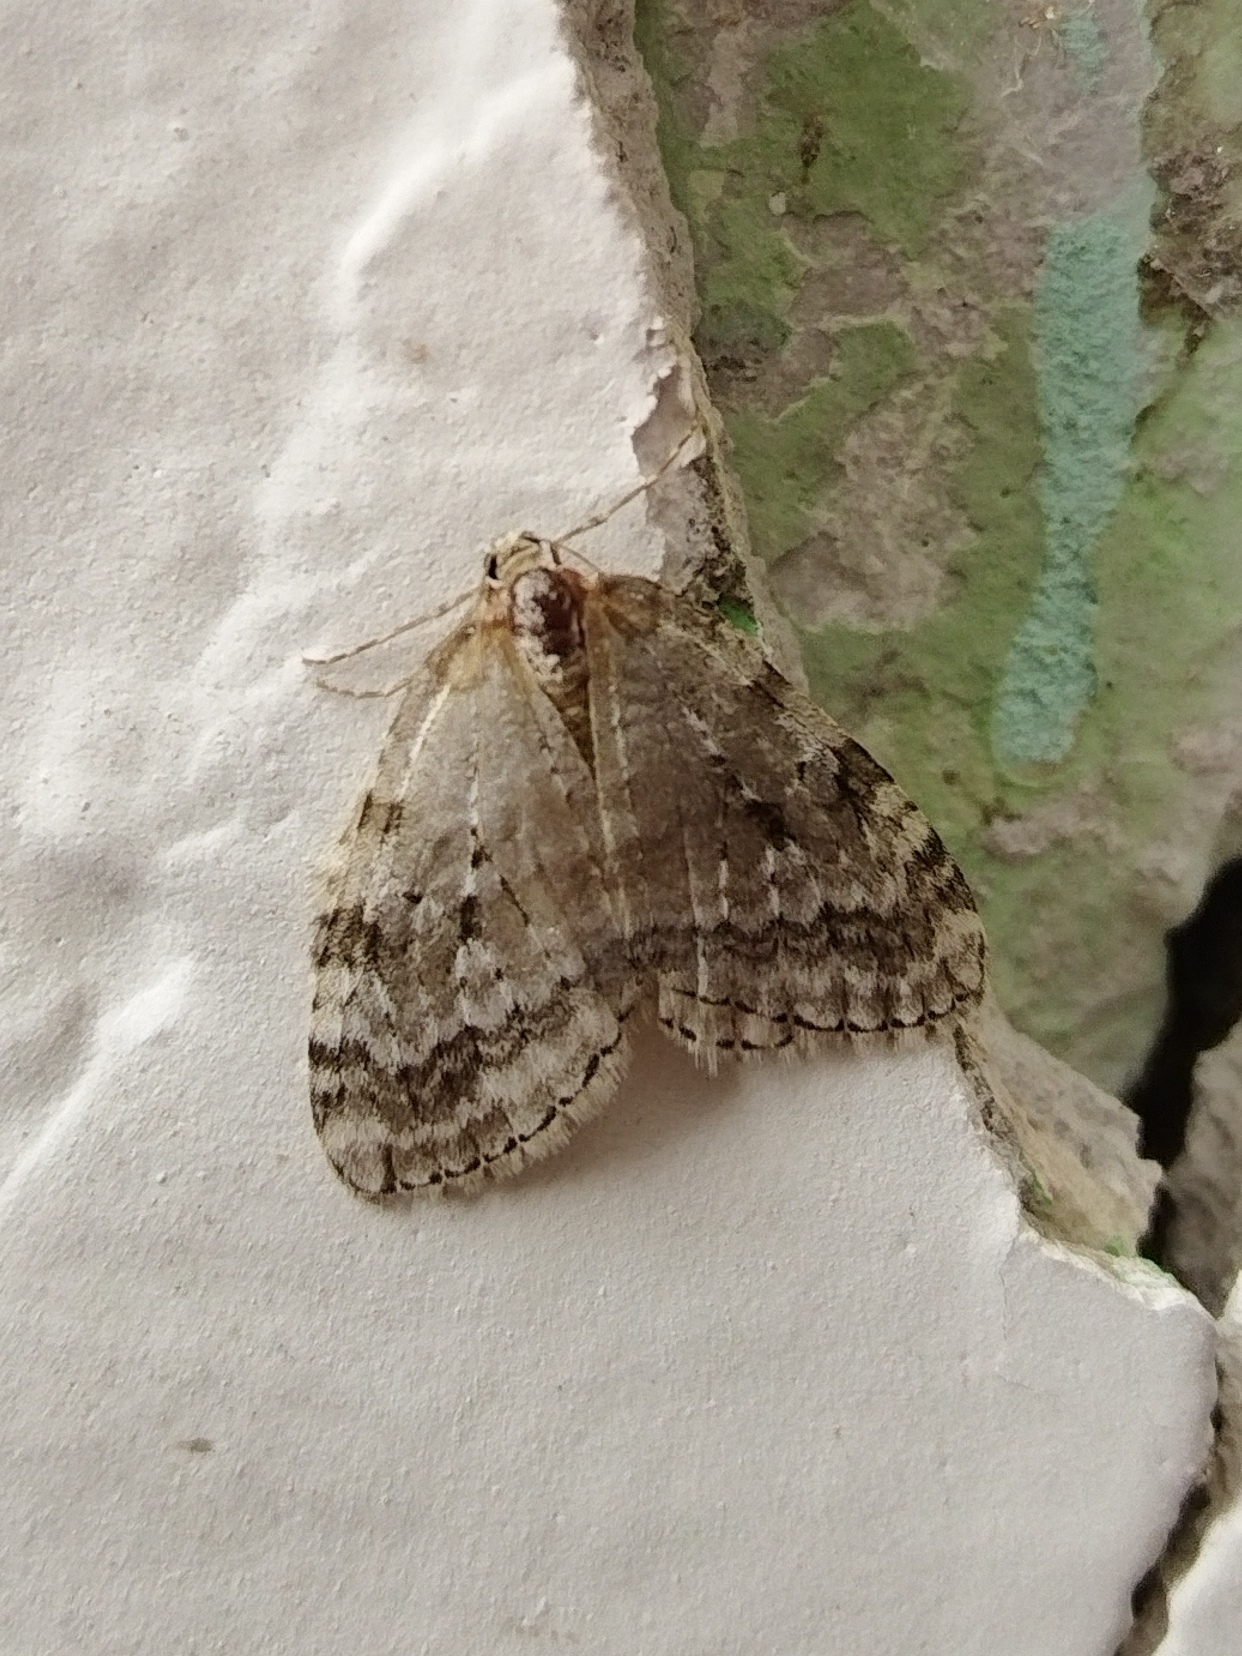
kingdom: Animalia
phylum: Arthropoda
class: Insecta
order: Lepidoptera
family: Geometridae
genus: Epirrita
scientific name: Epirrita autumnata
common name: Autumnal moth
